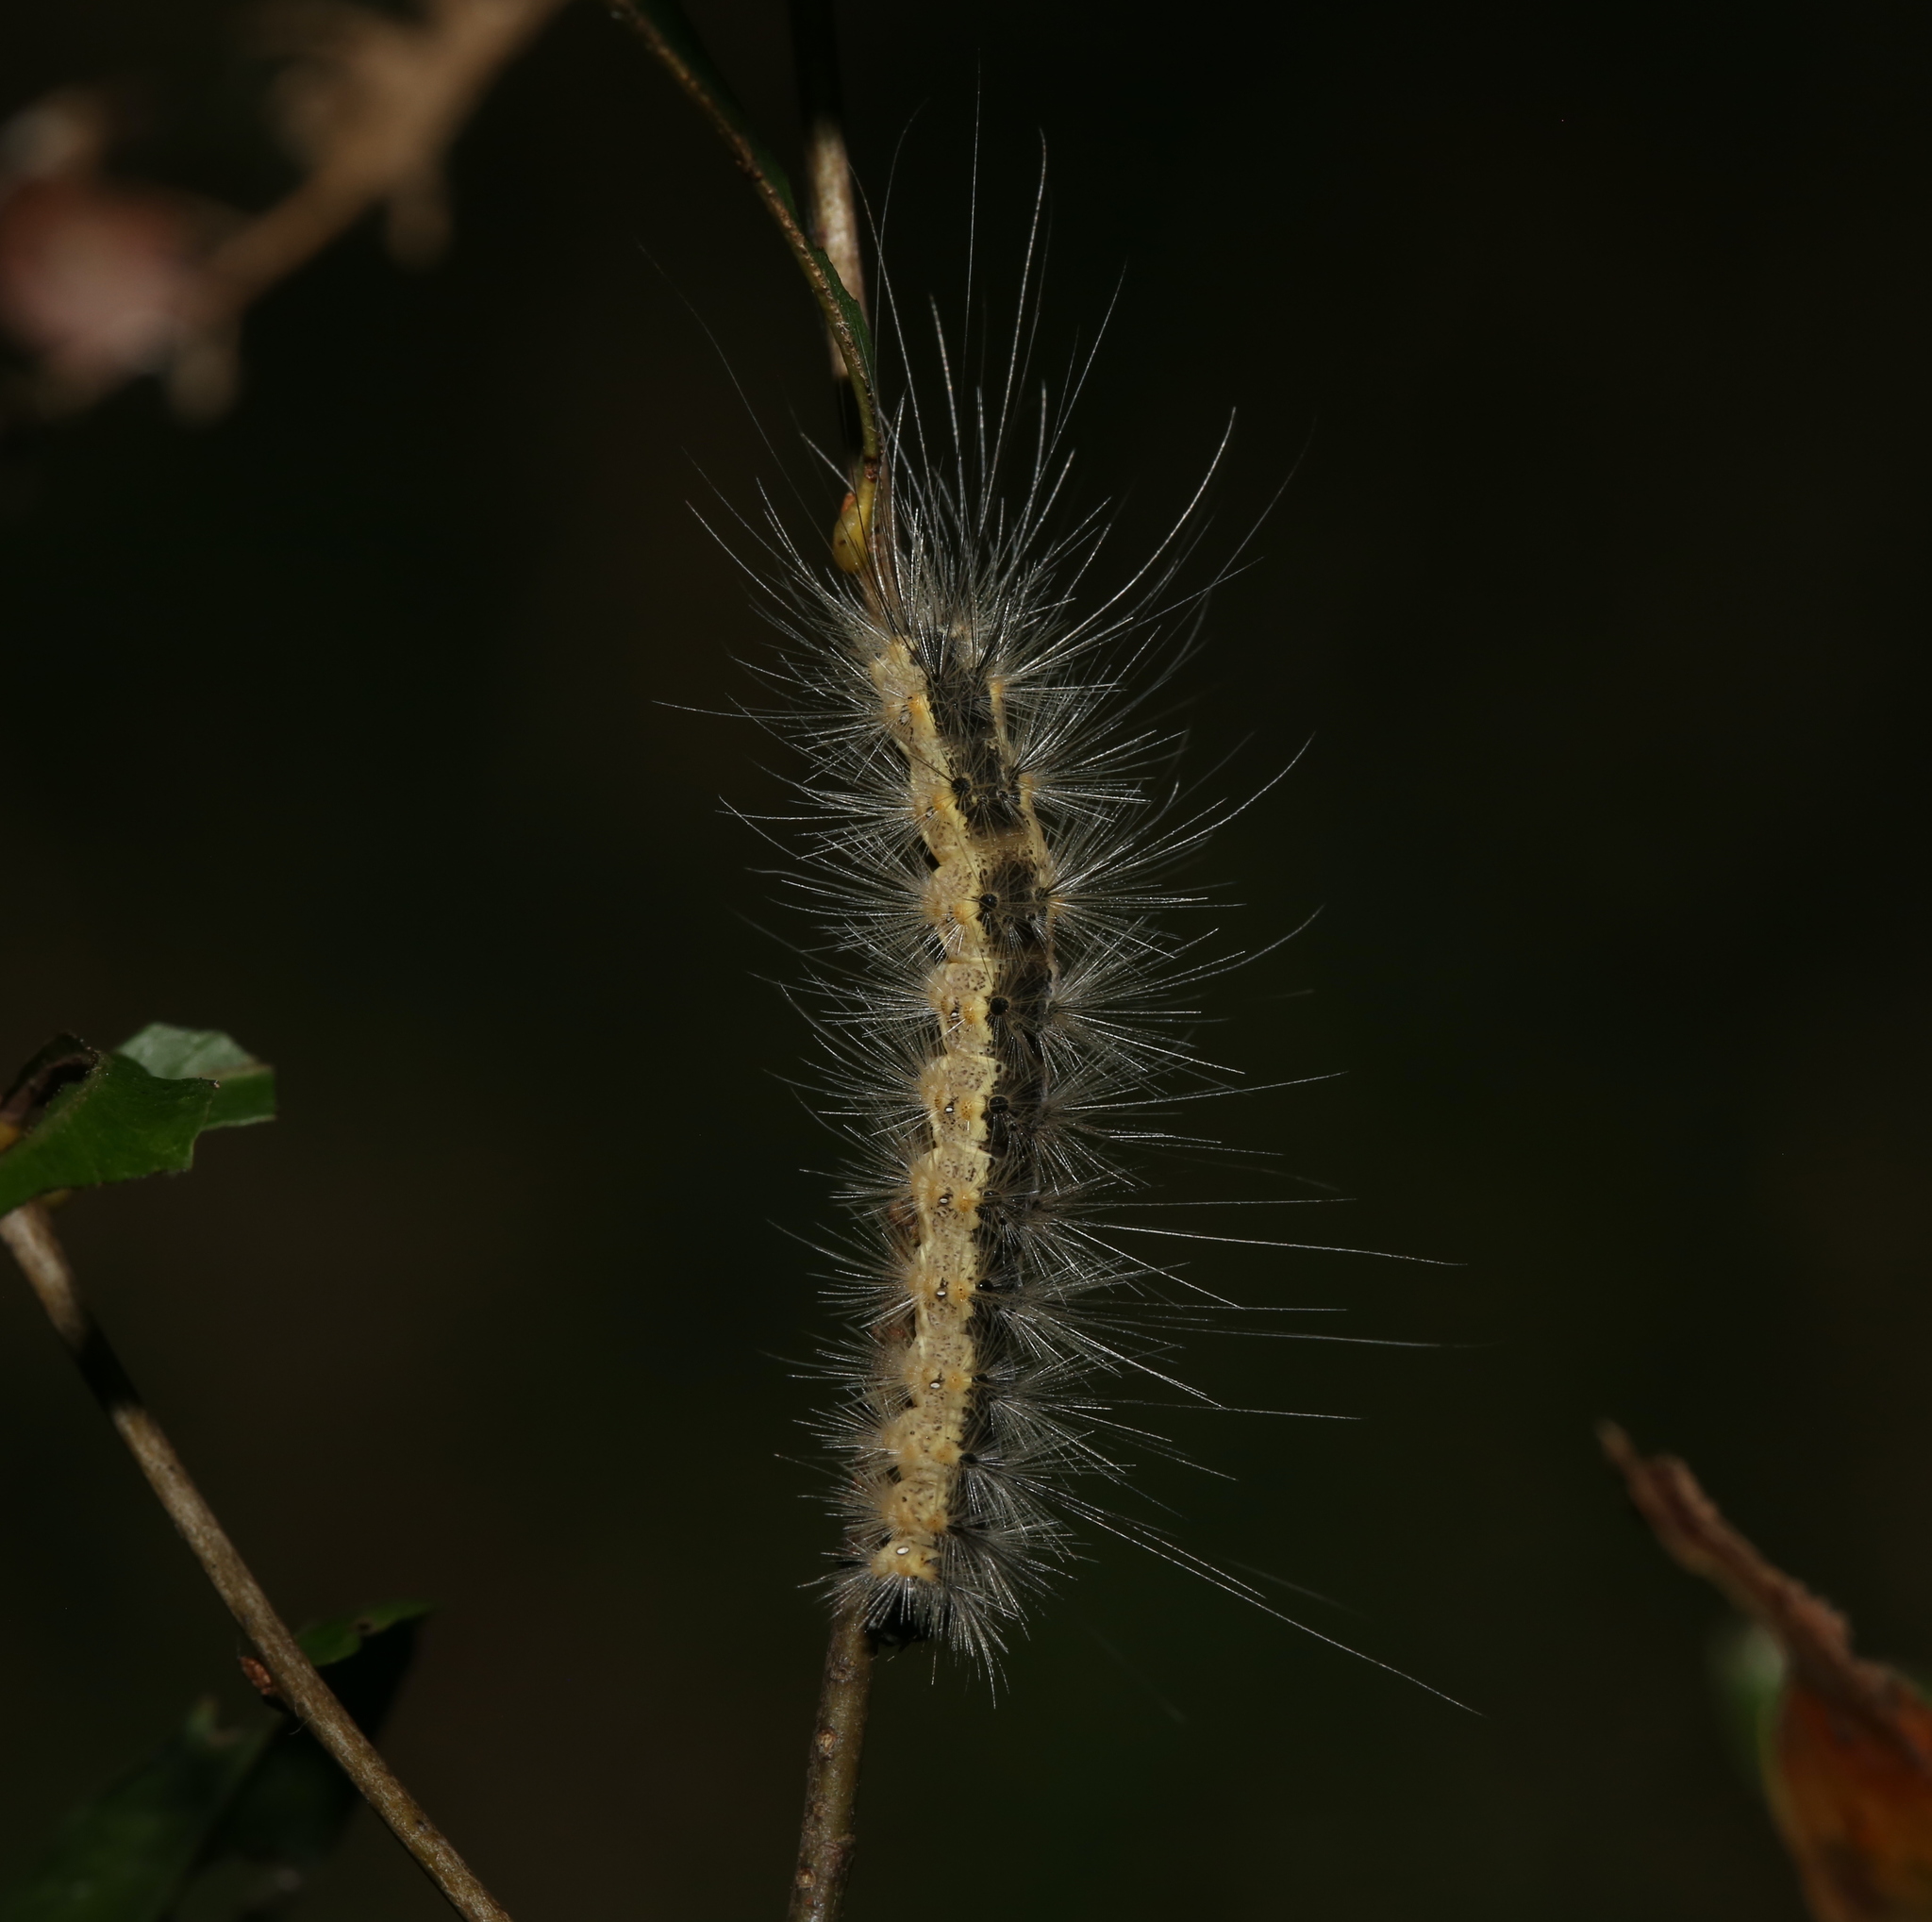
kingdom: Animalia
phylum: Arthropoda
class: Insecta
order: Lepidoptera
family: Erebidae
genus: Hyphantria
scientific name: Hyphantria cunea
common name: American white moth
